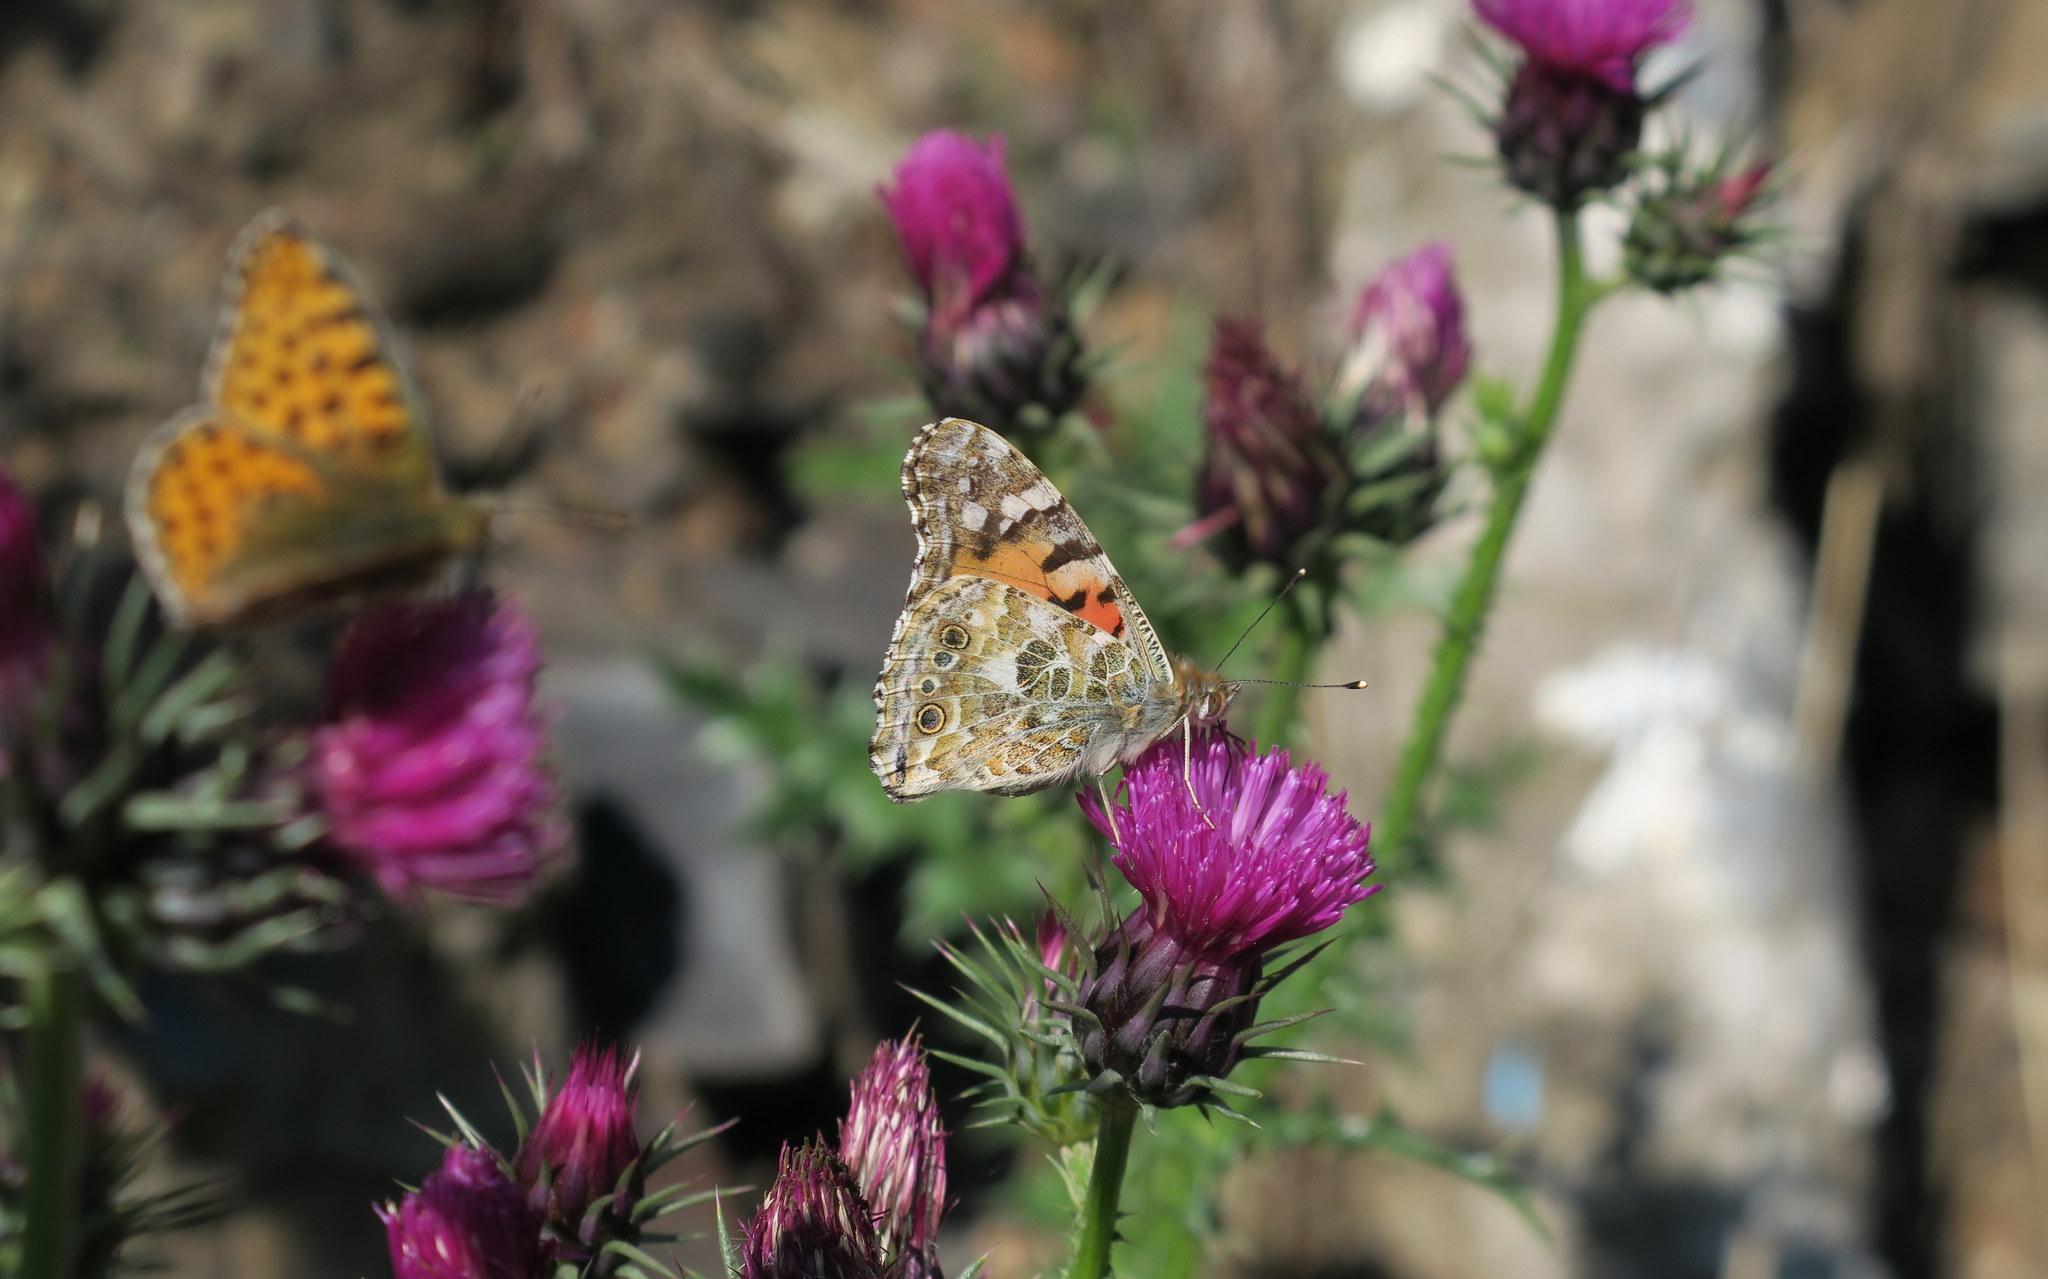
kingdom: Animalia
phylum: Arthropoda
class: Insecta
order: Lepidoptera
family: Nymphalidae
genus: Vanessa
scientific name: Vanessa cardui
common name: Painted lady
